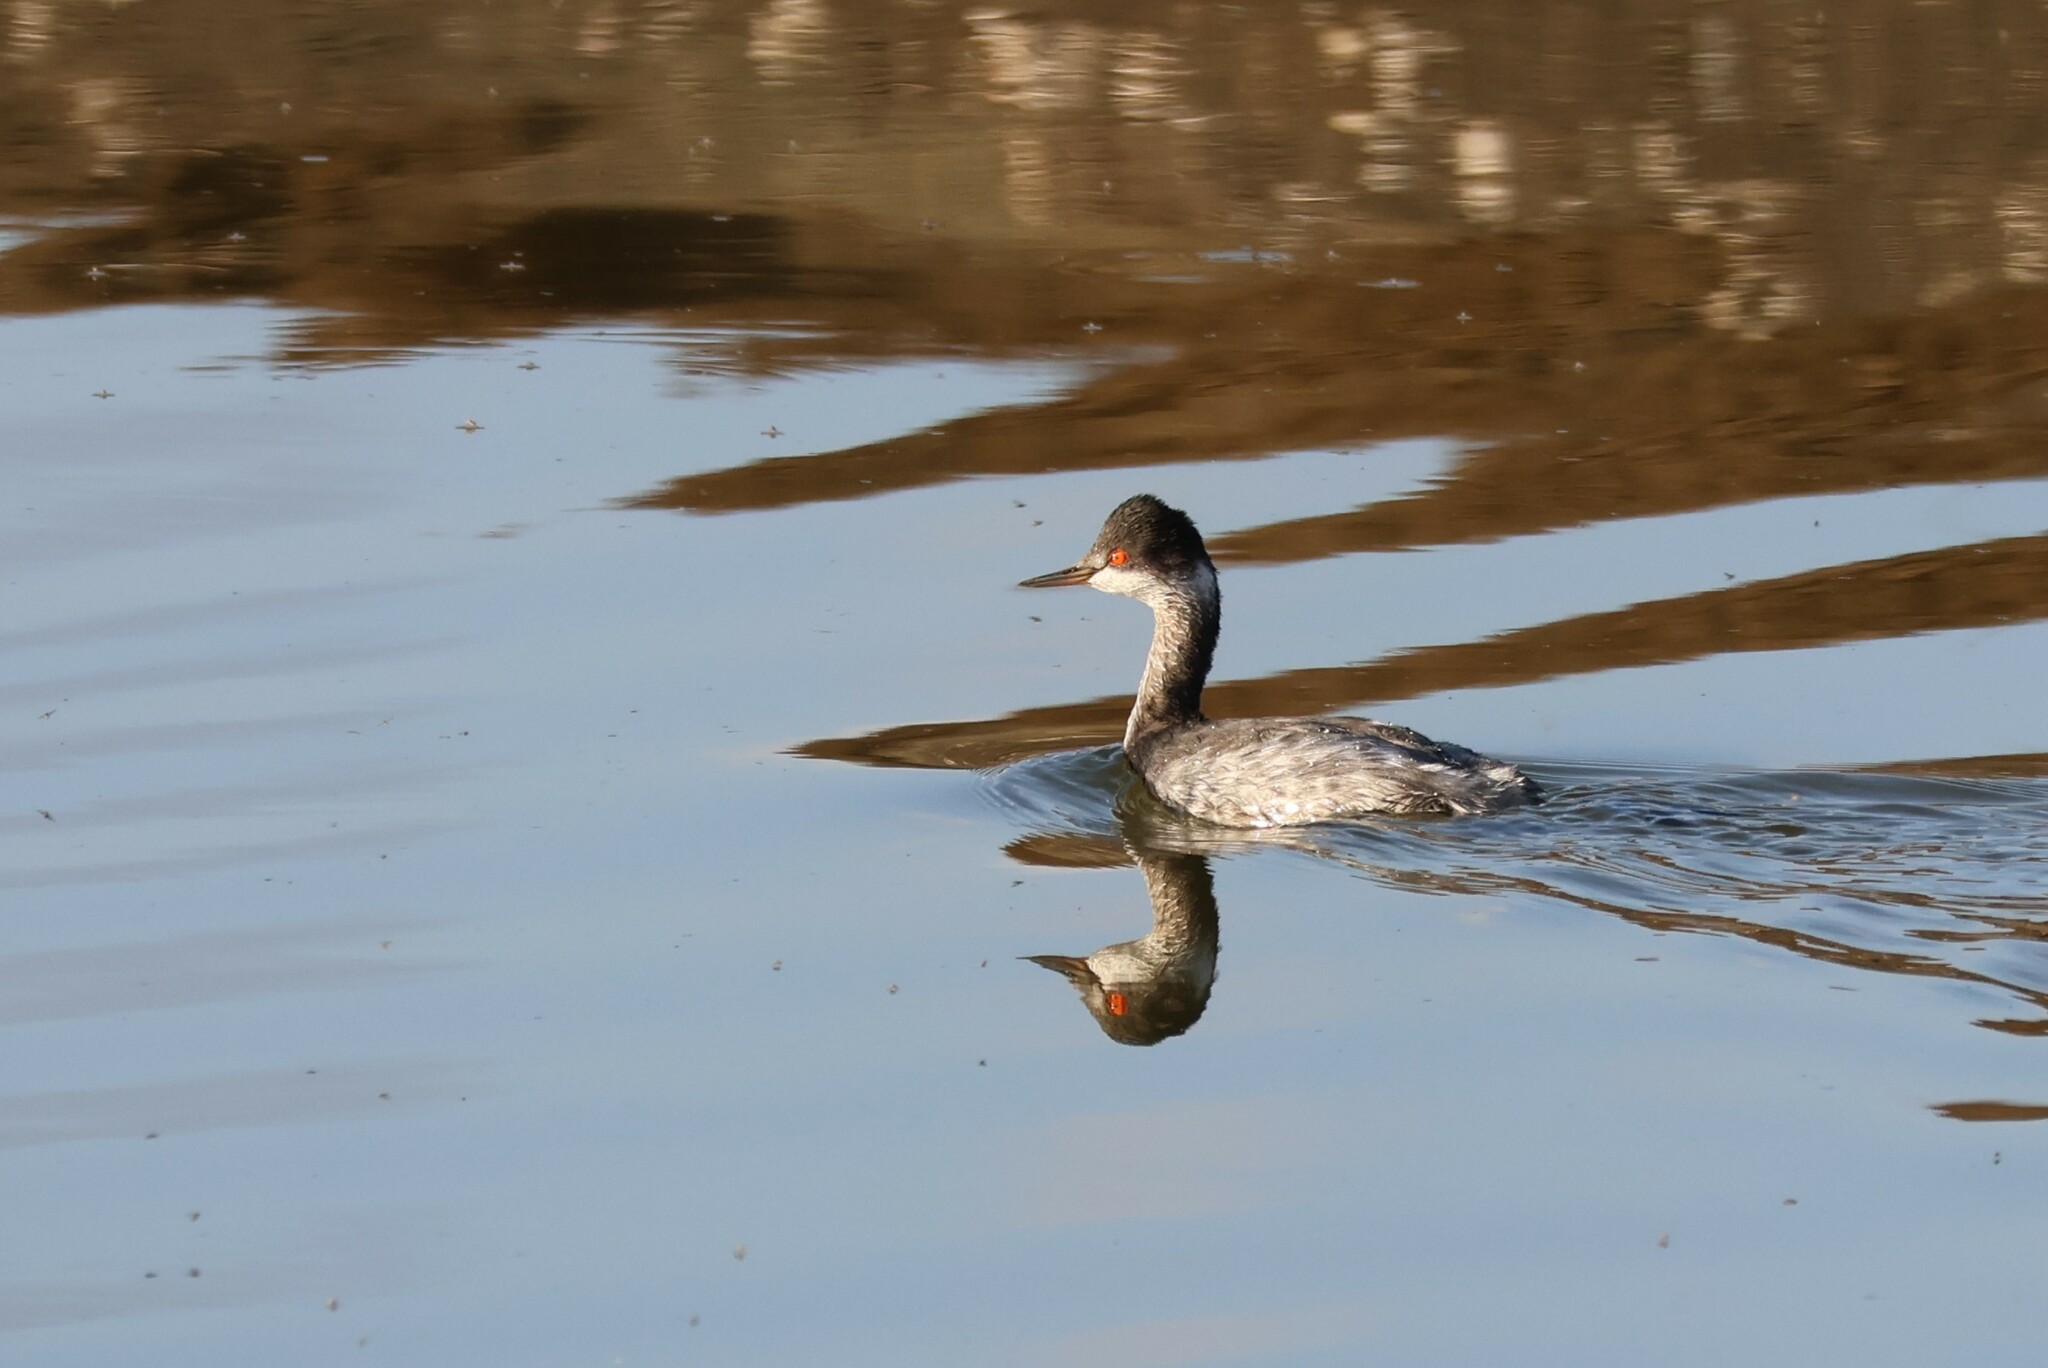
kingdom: Animalia
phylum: Chordata
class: Aves
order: Podicipediformes
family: Podicipedidae
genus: Podiceps
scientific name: Podiceps nigricollis
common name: Black-necked grebe
